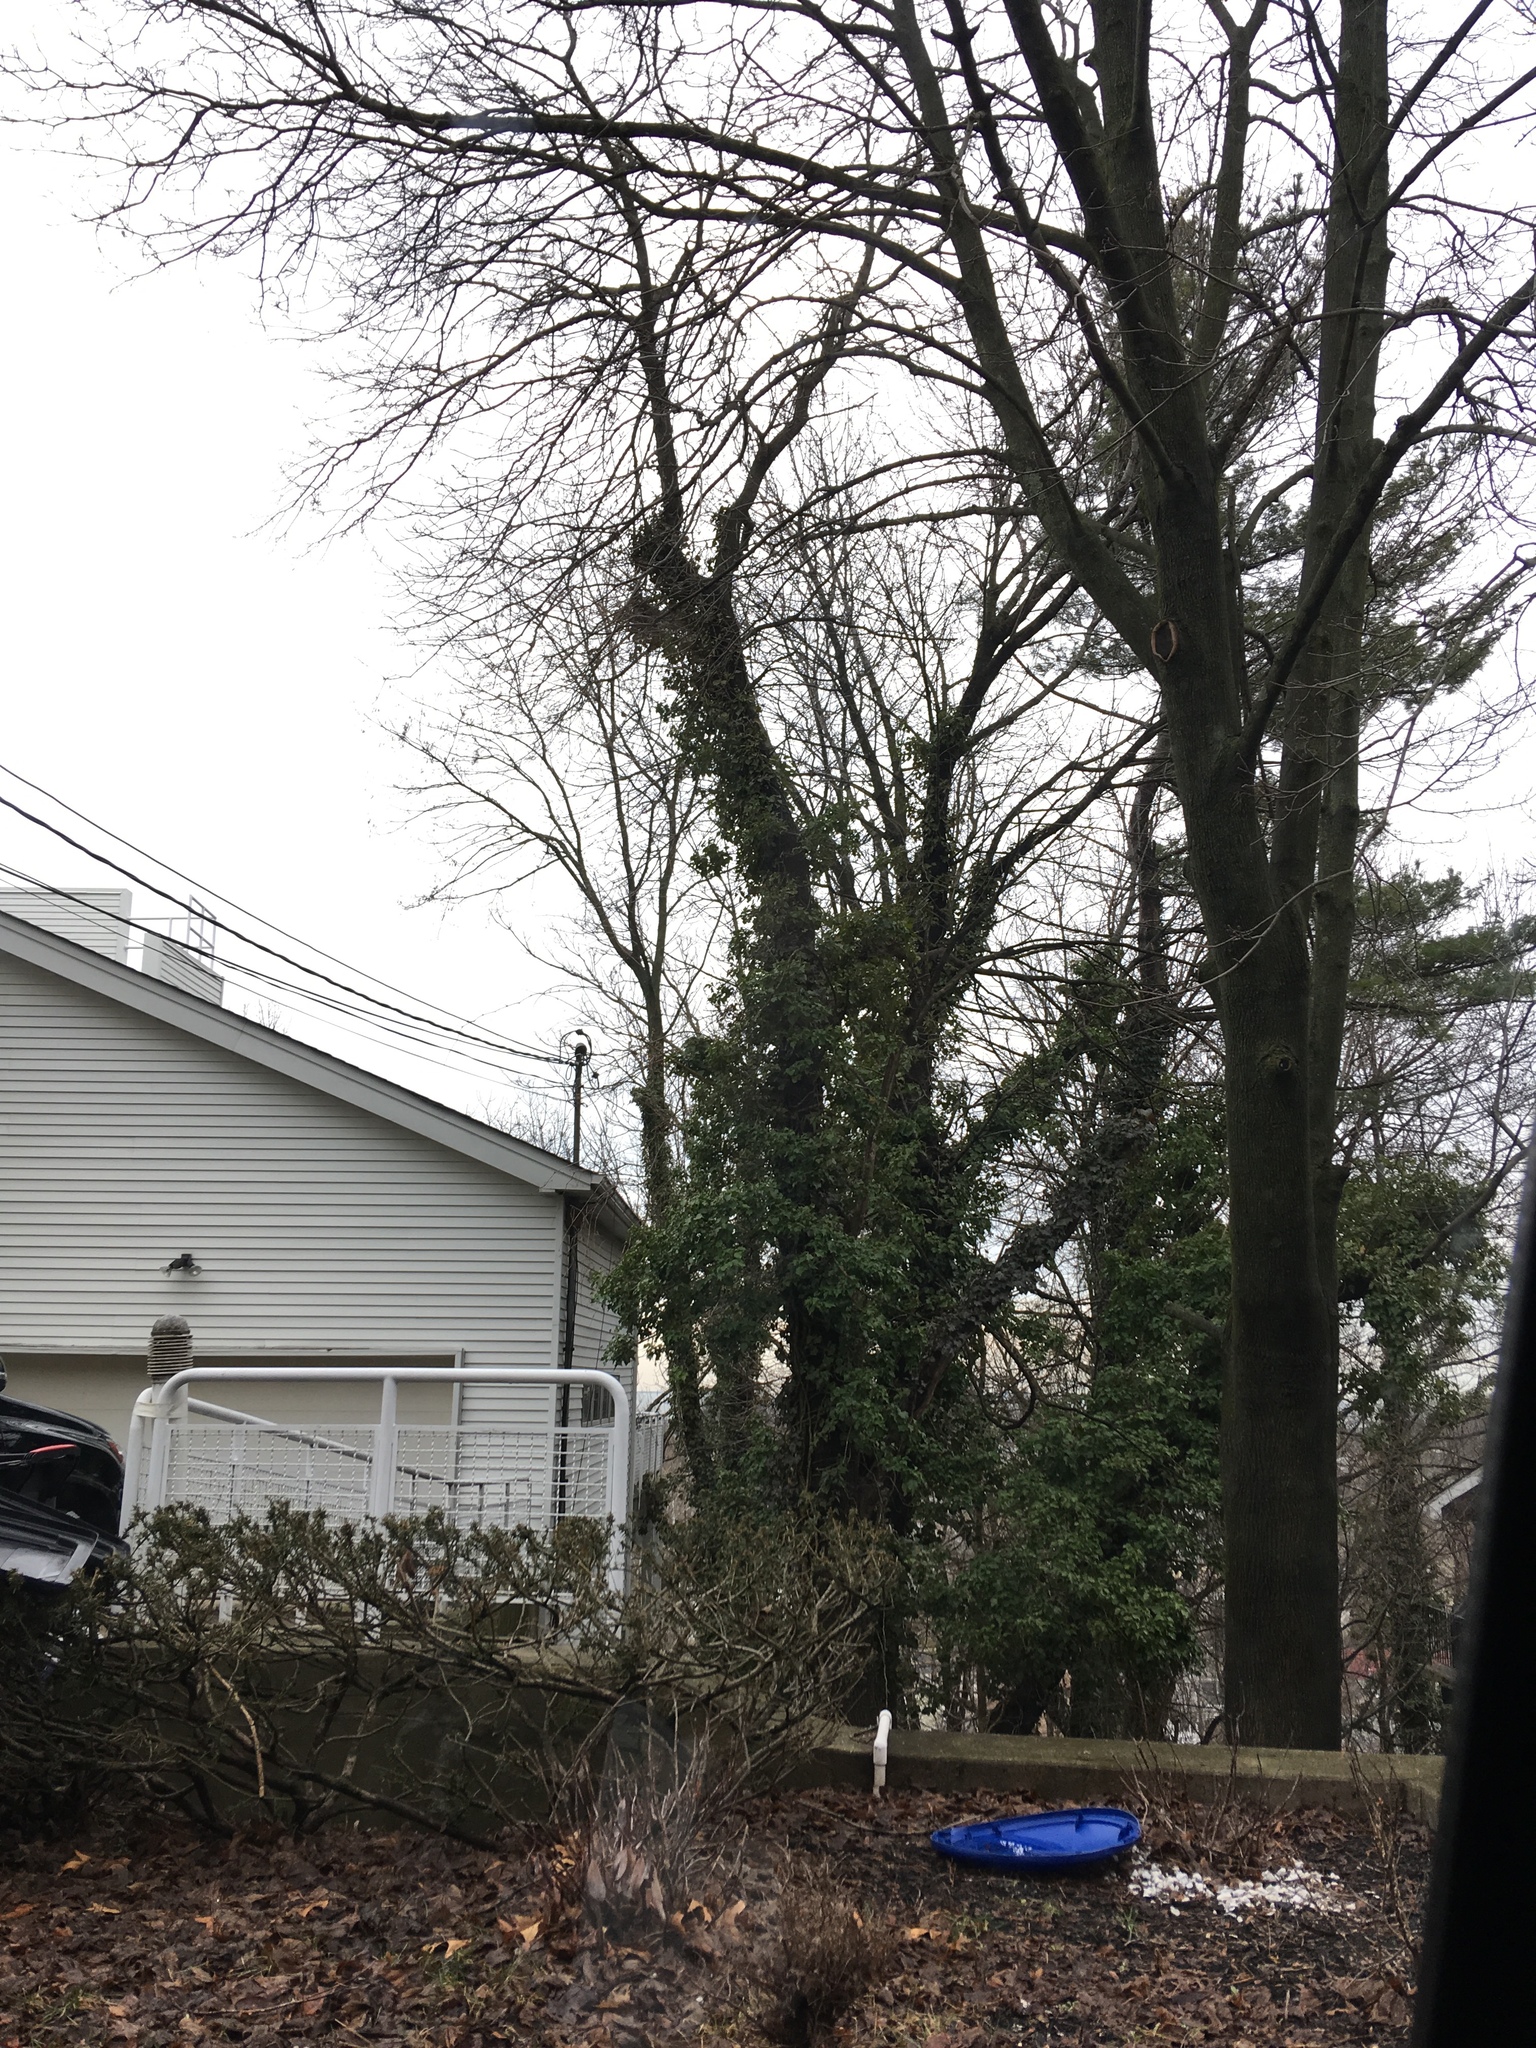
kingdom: Plantae
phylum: Tracheophyta
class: Magnoliopsida
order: Apiales
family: Araliaceae
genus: Hedera
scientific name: Hedera helix
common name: Ivy
